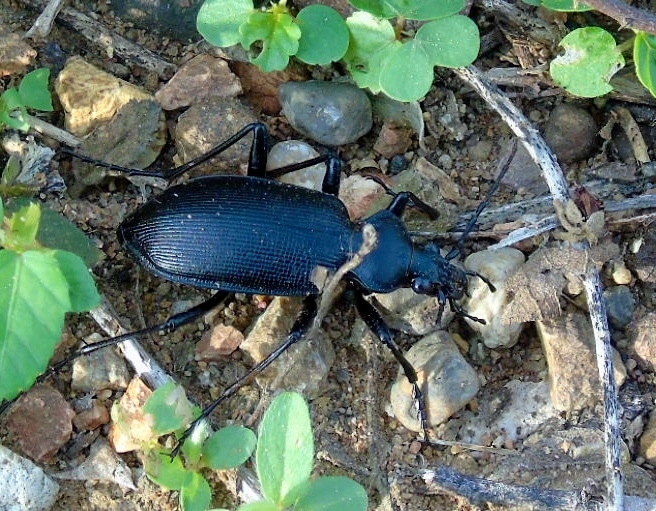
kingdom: Animalia
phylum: Arthropoda
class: Insecta
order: Coleoptera
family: Carabidae
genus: Calosoma
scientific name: Calosoma
